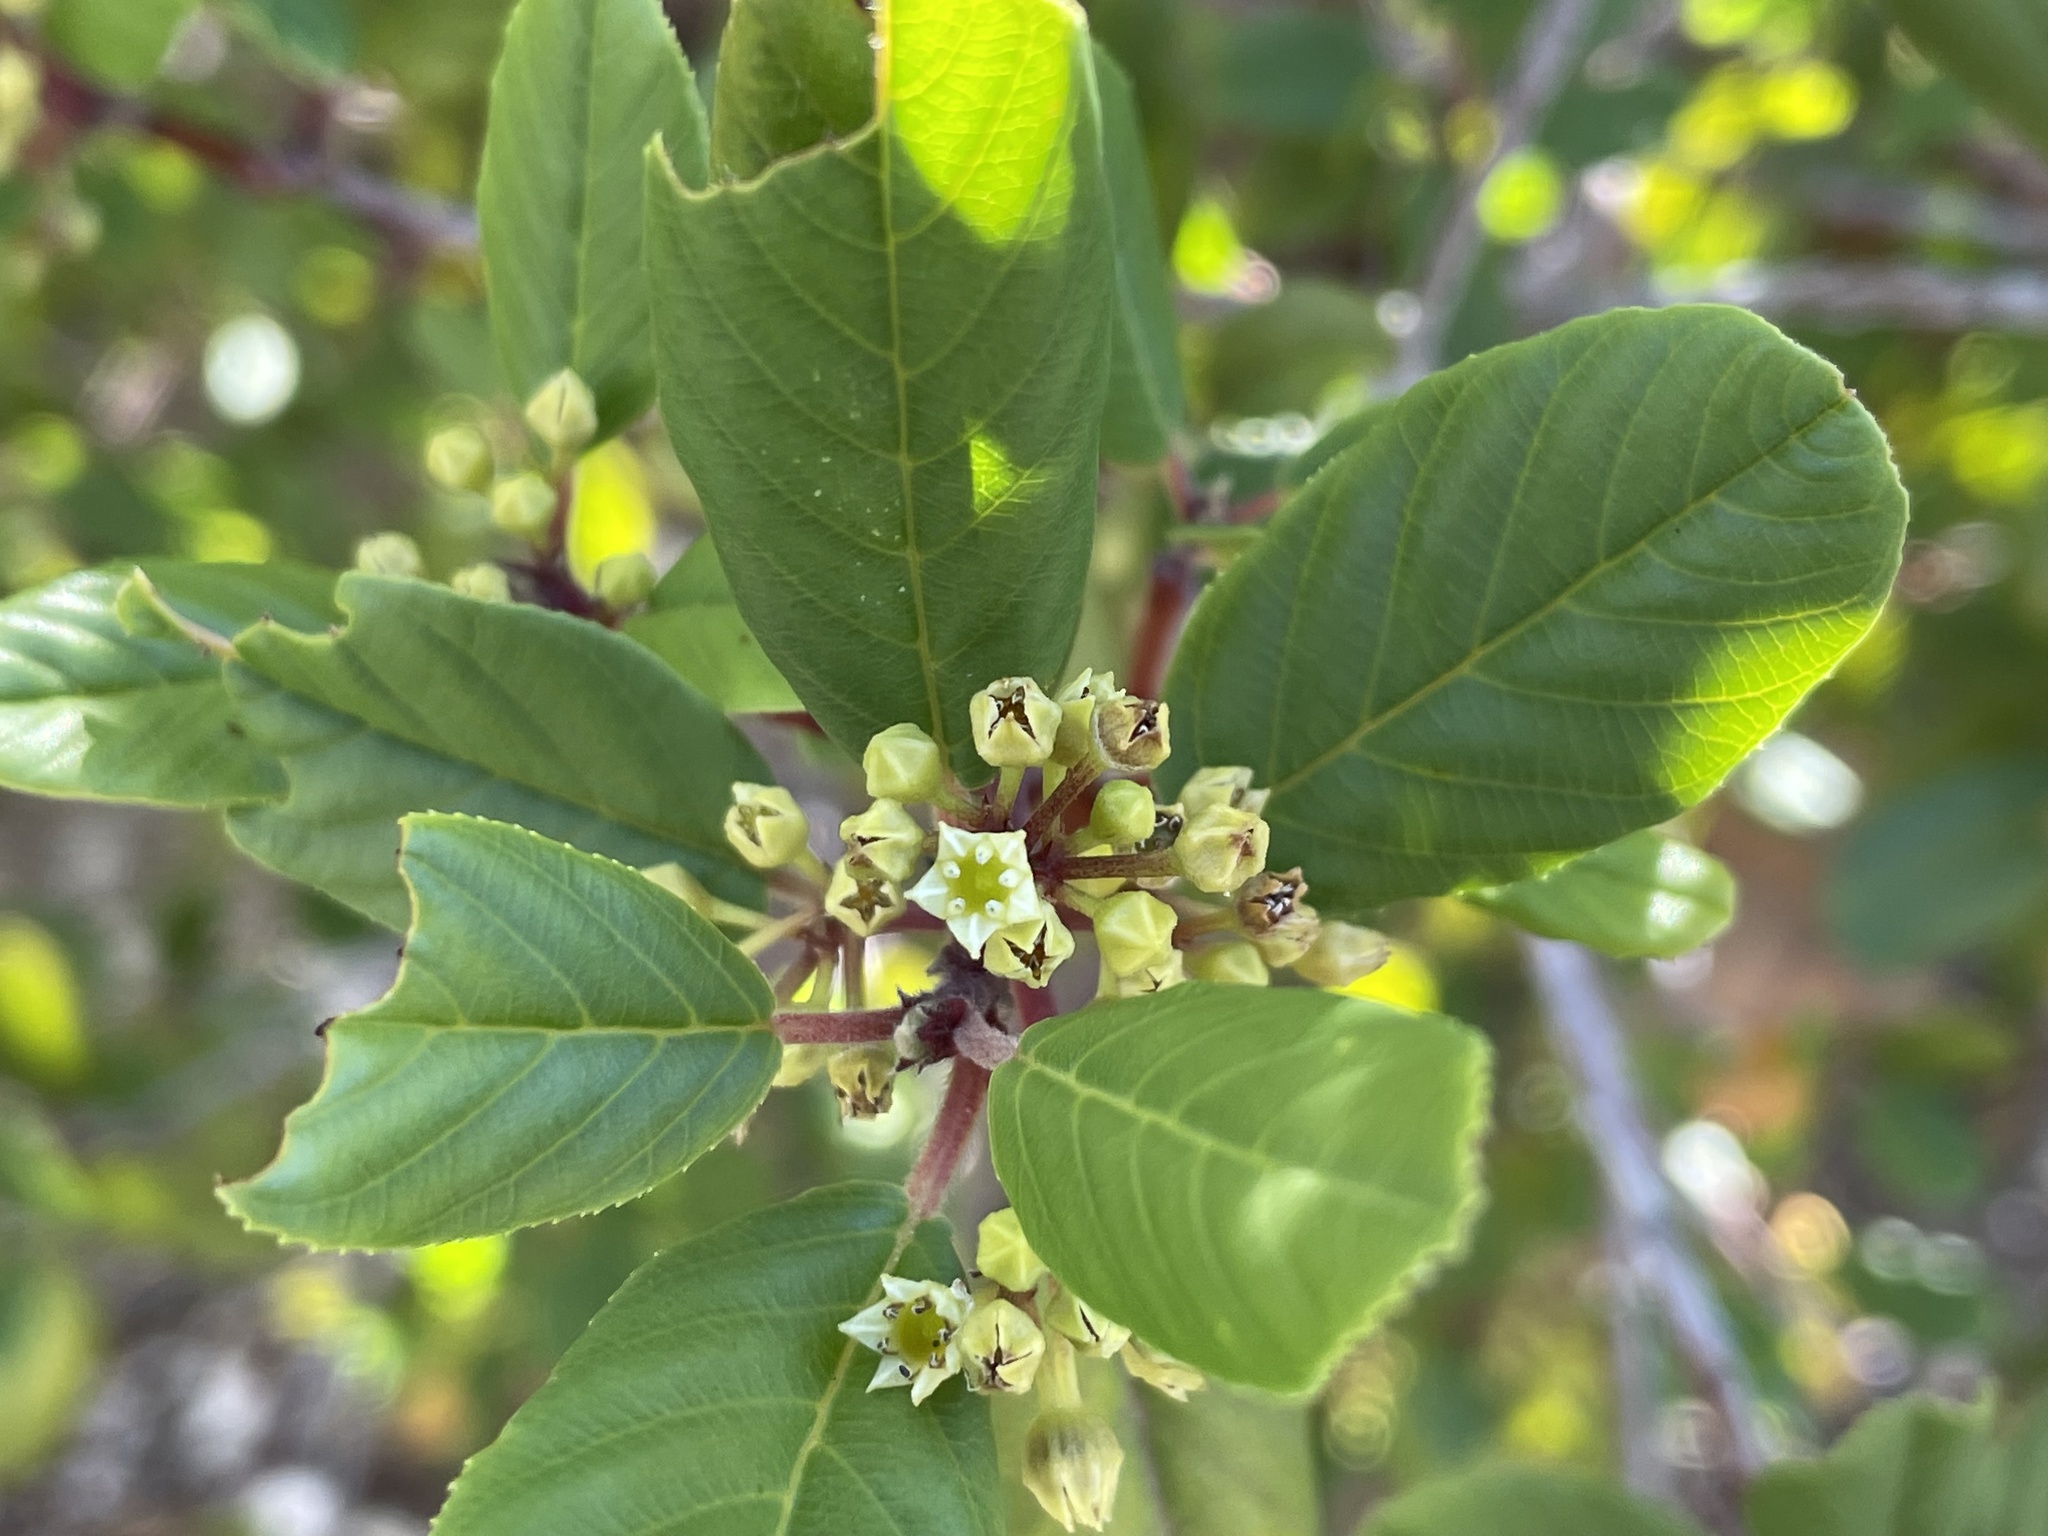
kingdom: Plantae
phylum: Tracheophyta
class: Magnoliopsida
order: Rosales
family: Rhamnaceae
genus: Frangula
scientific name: Frangula californica
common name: California buckthorn
